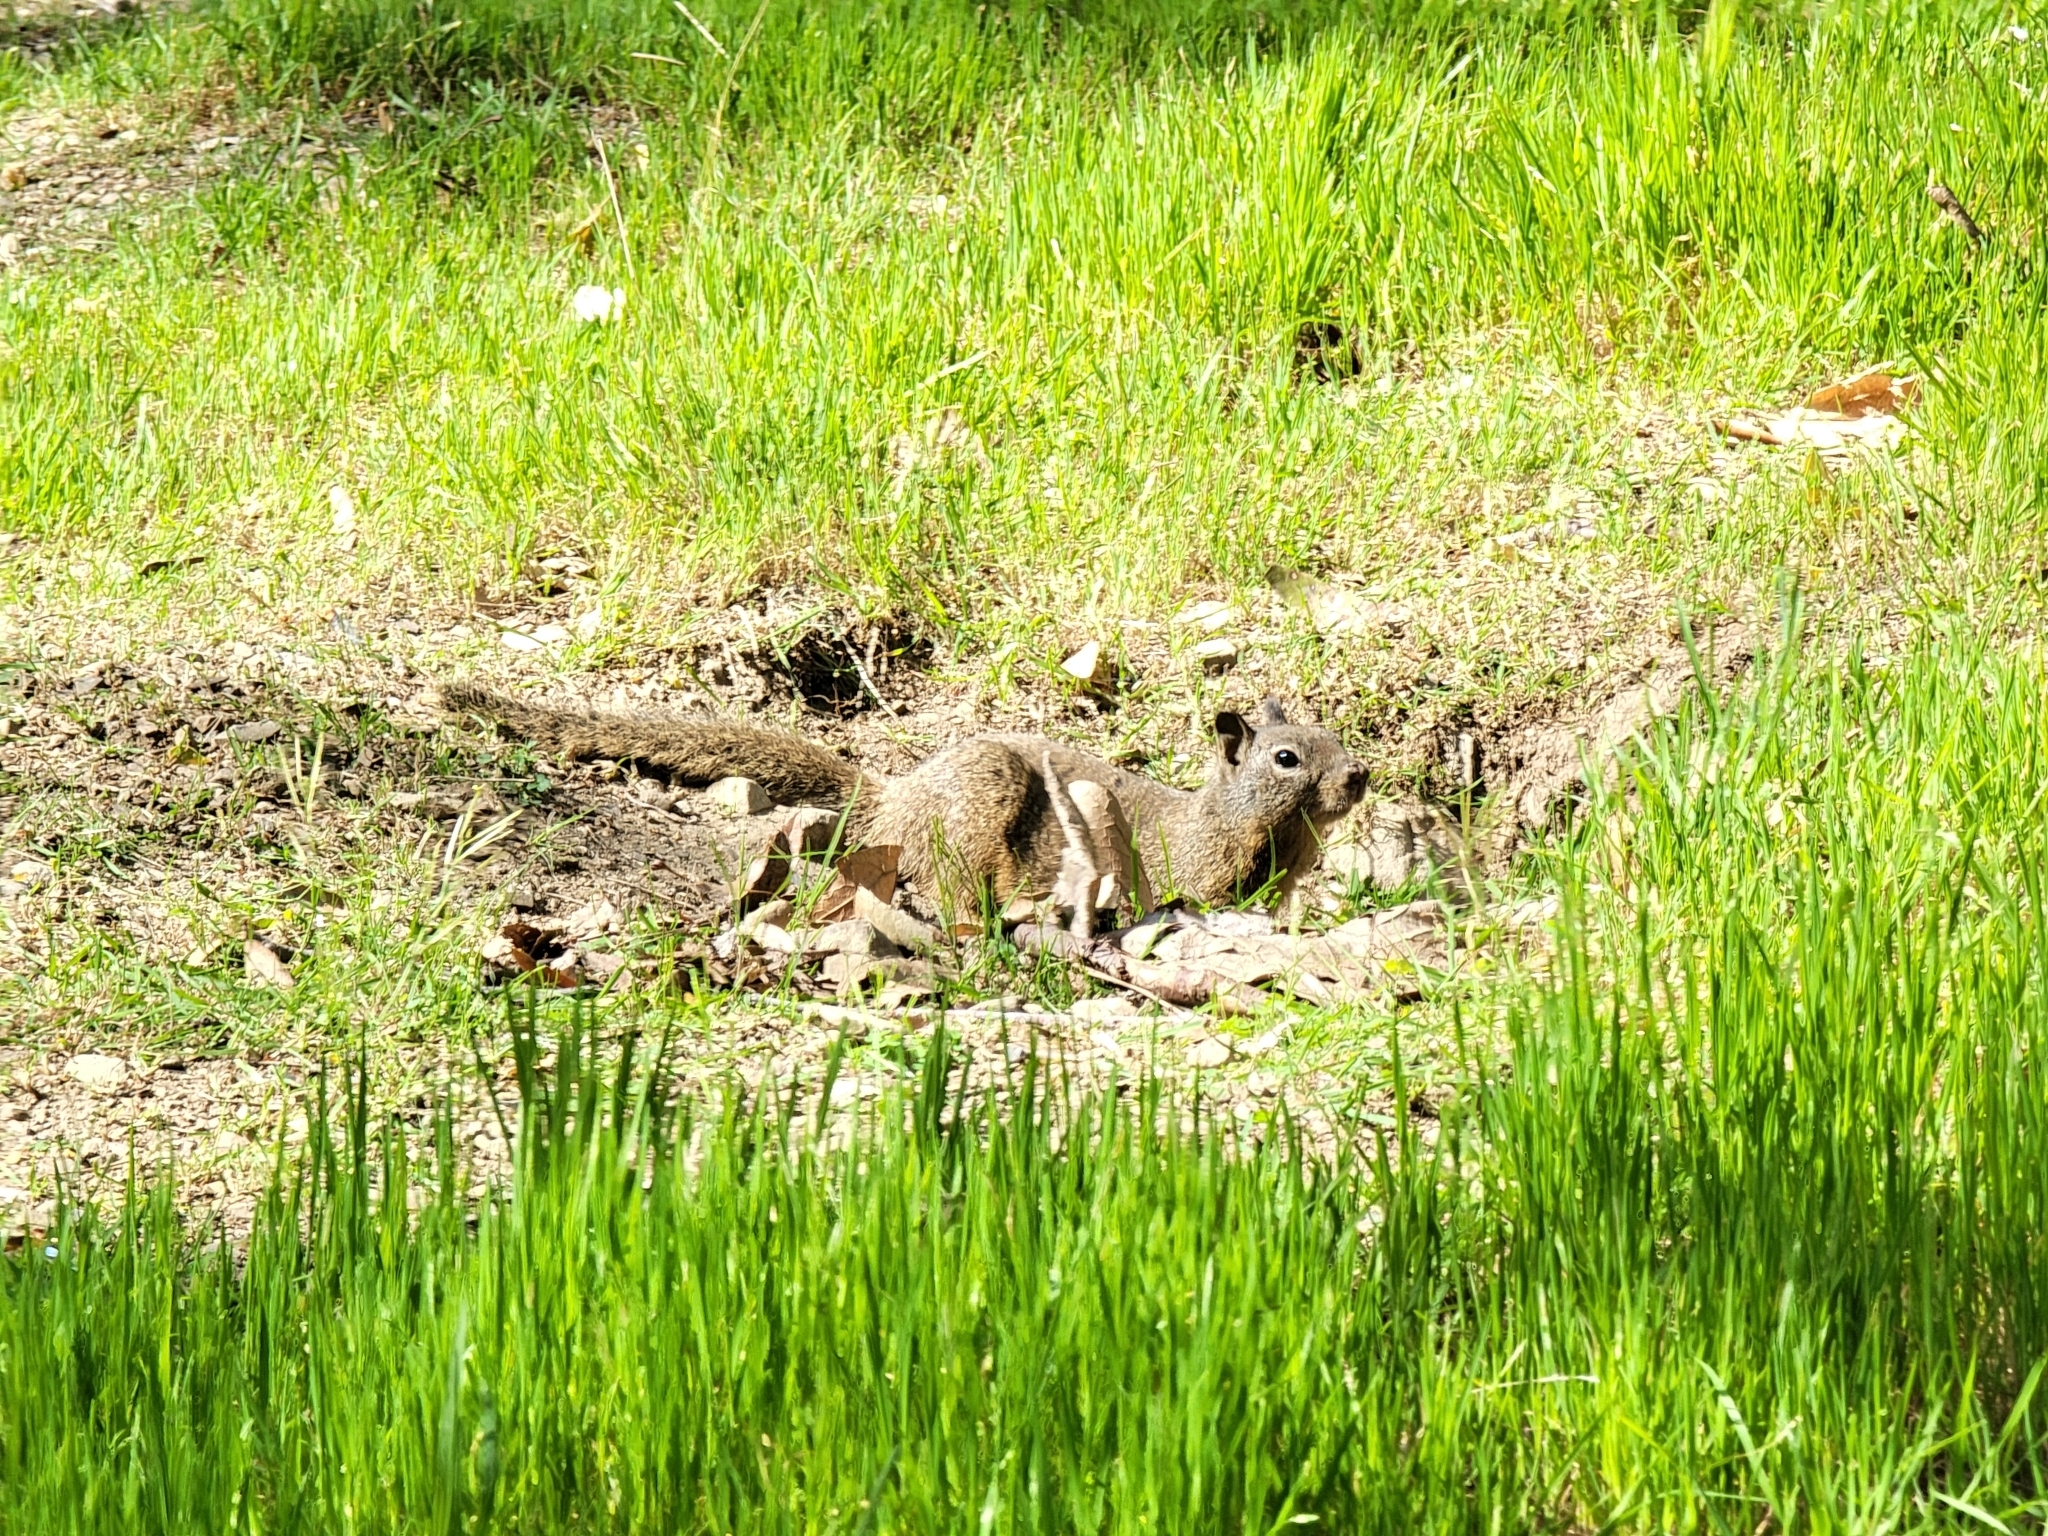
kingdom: Animalia
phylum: Chordata
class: Mammalia
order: Rodentia
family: Sciuridae
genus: Otospermophilus
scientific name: Otospermophilus beecheyi
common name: California ground squirrel
